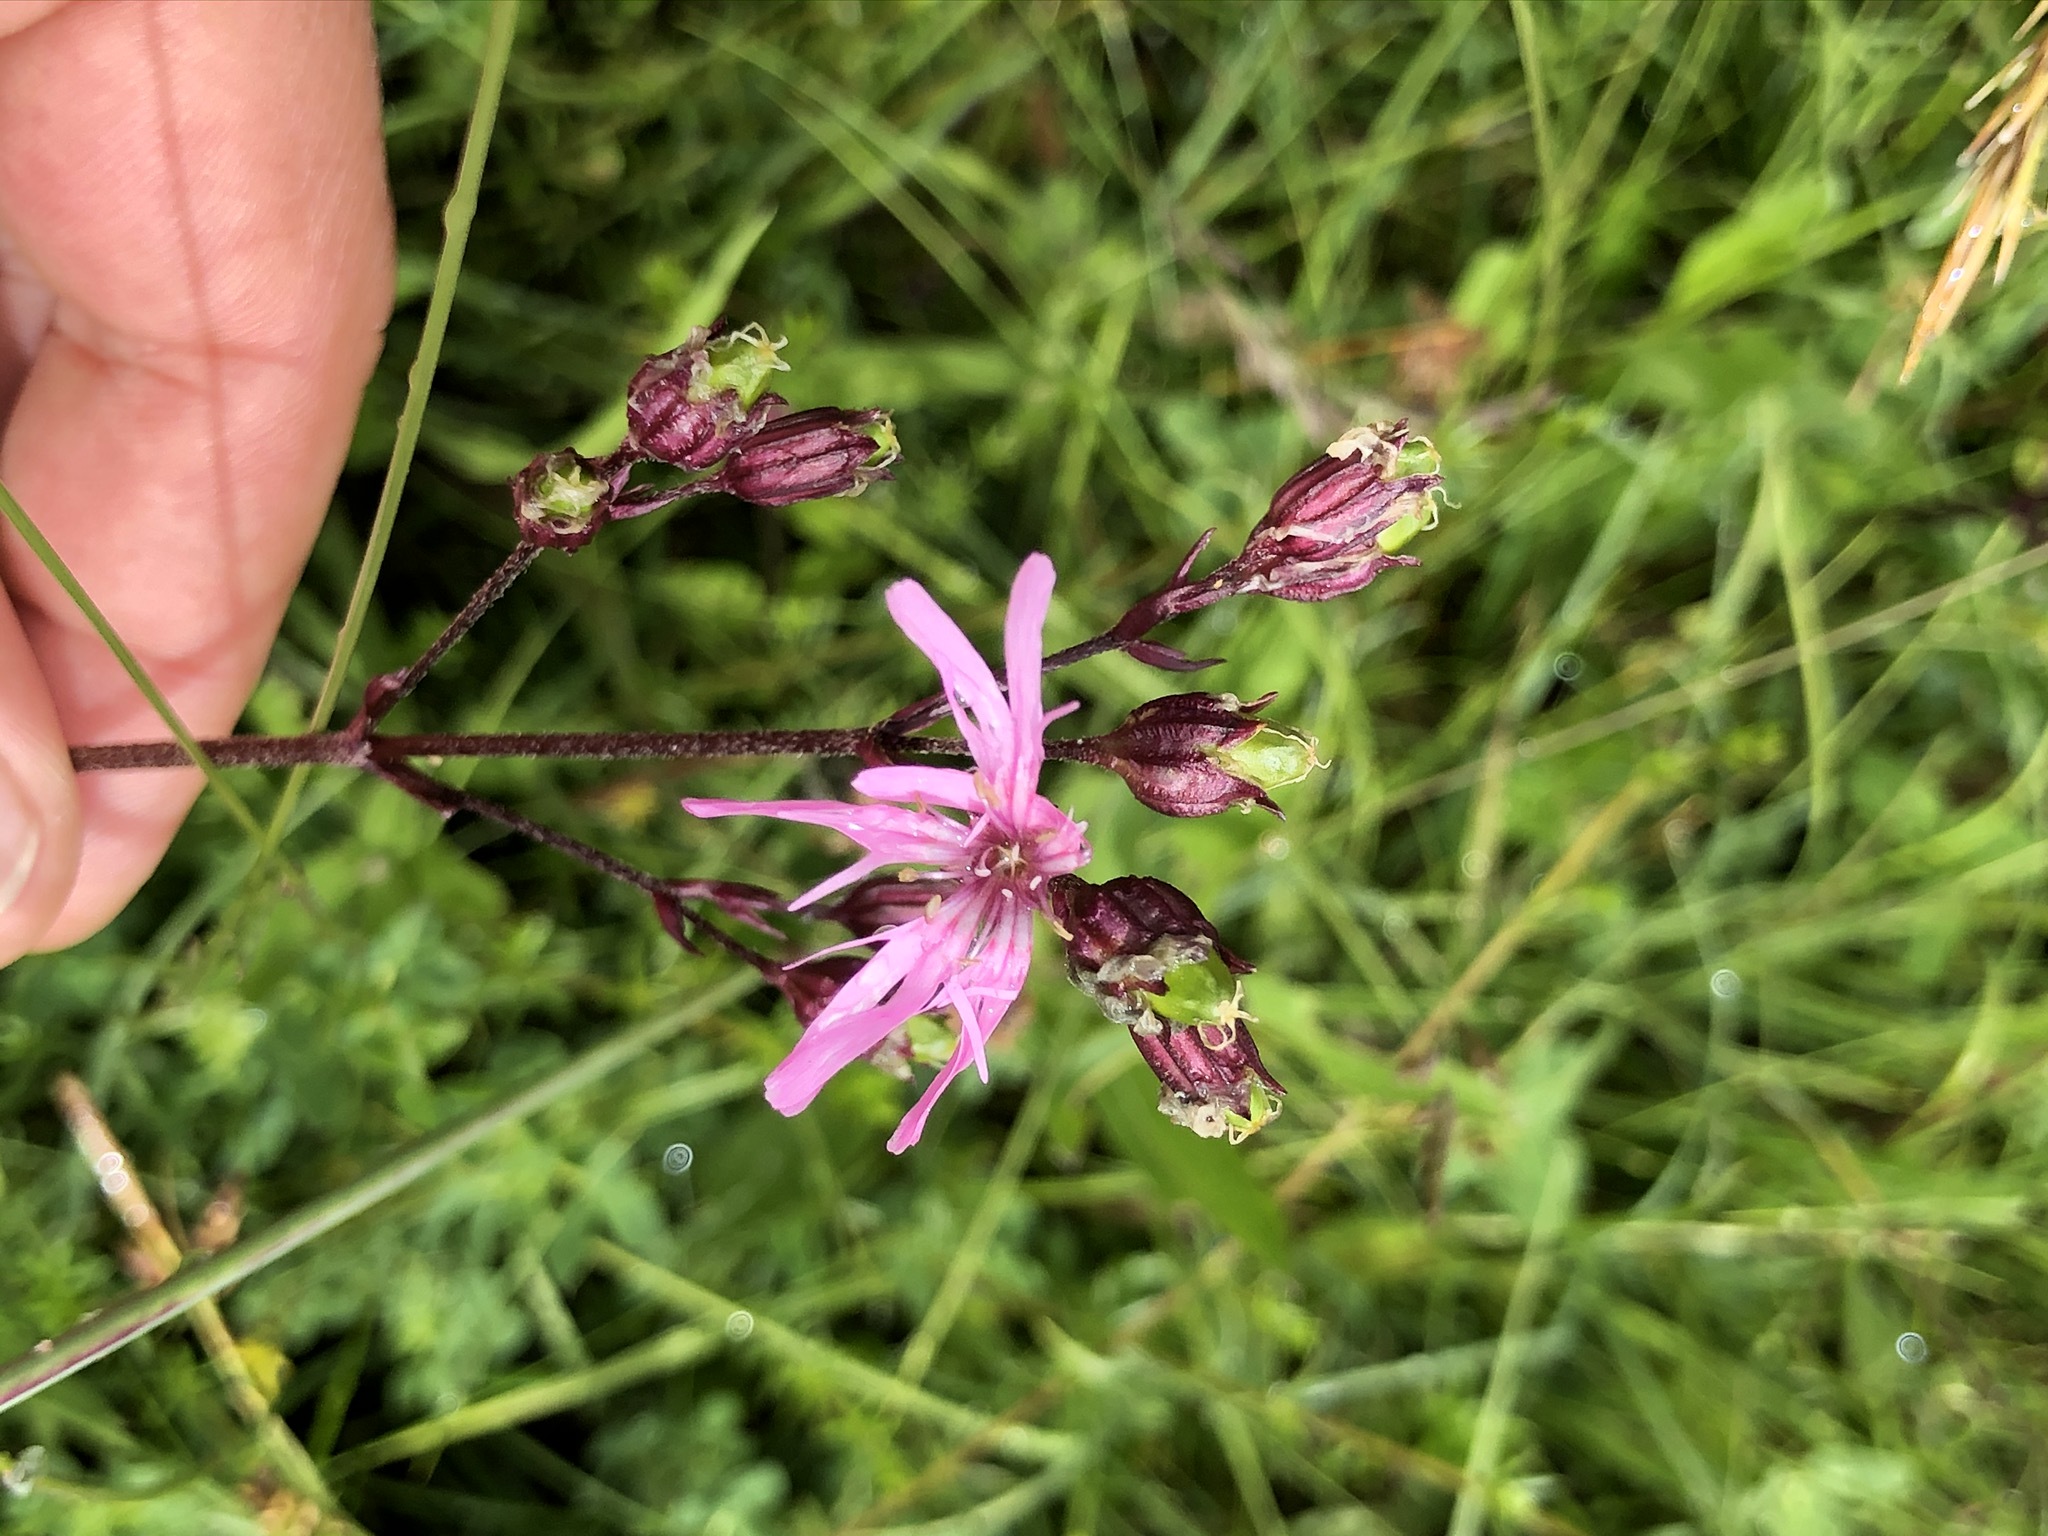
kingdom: Plantae
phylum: Tracheophyta
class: Magnoliopsida
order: Caryophyllales
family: Caryophyllaceae
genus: Silene
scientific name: Silene flos-cuculi
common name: Ragged-robin
